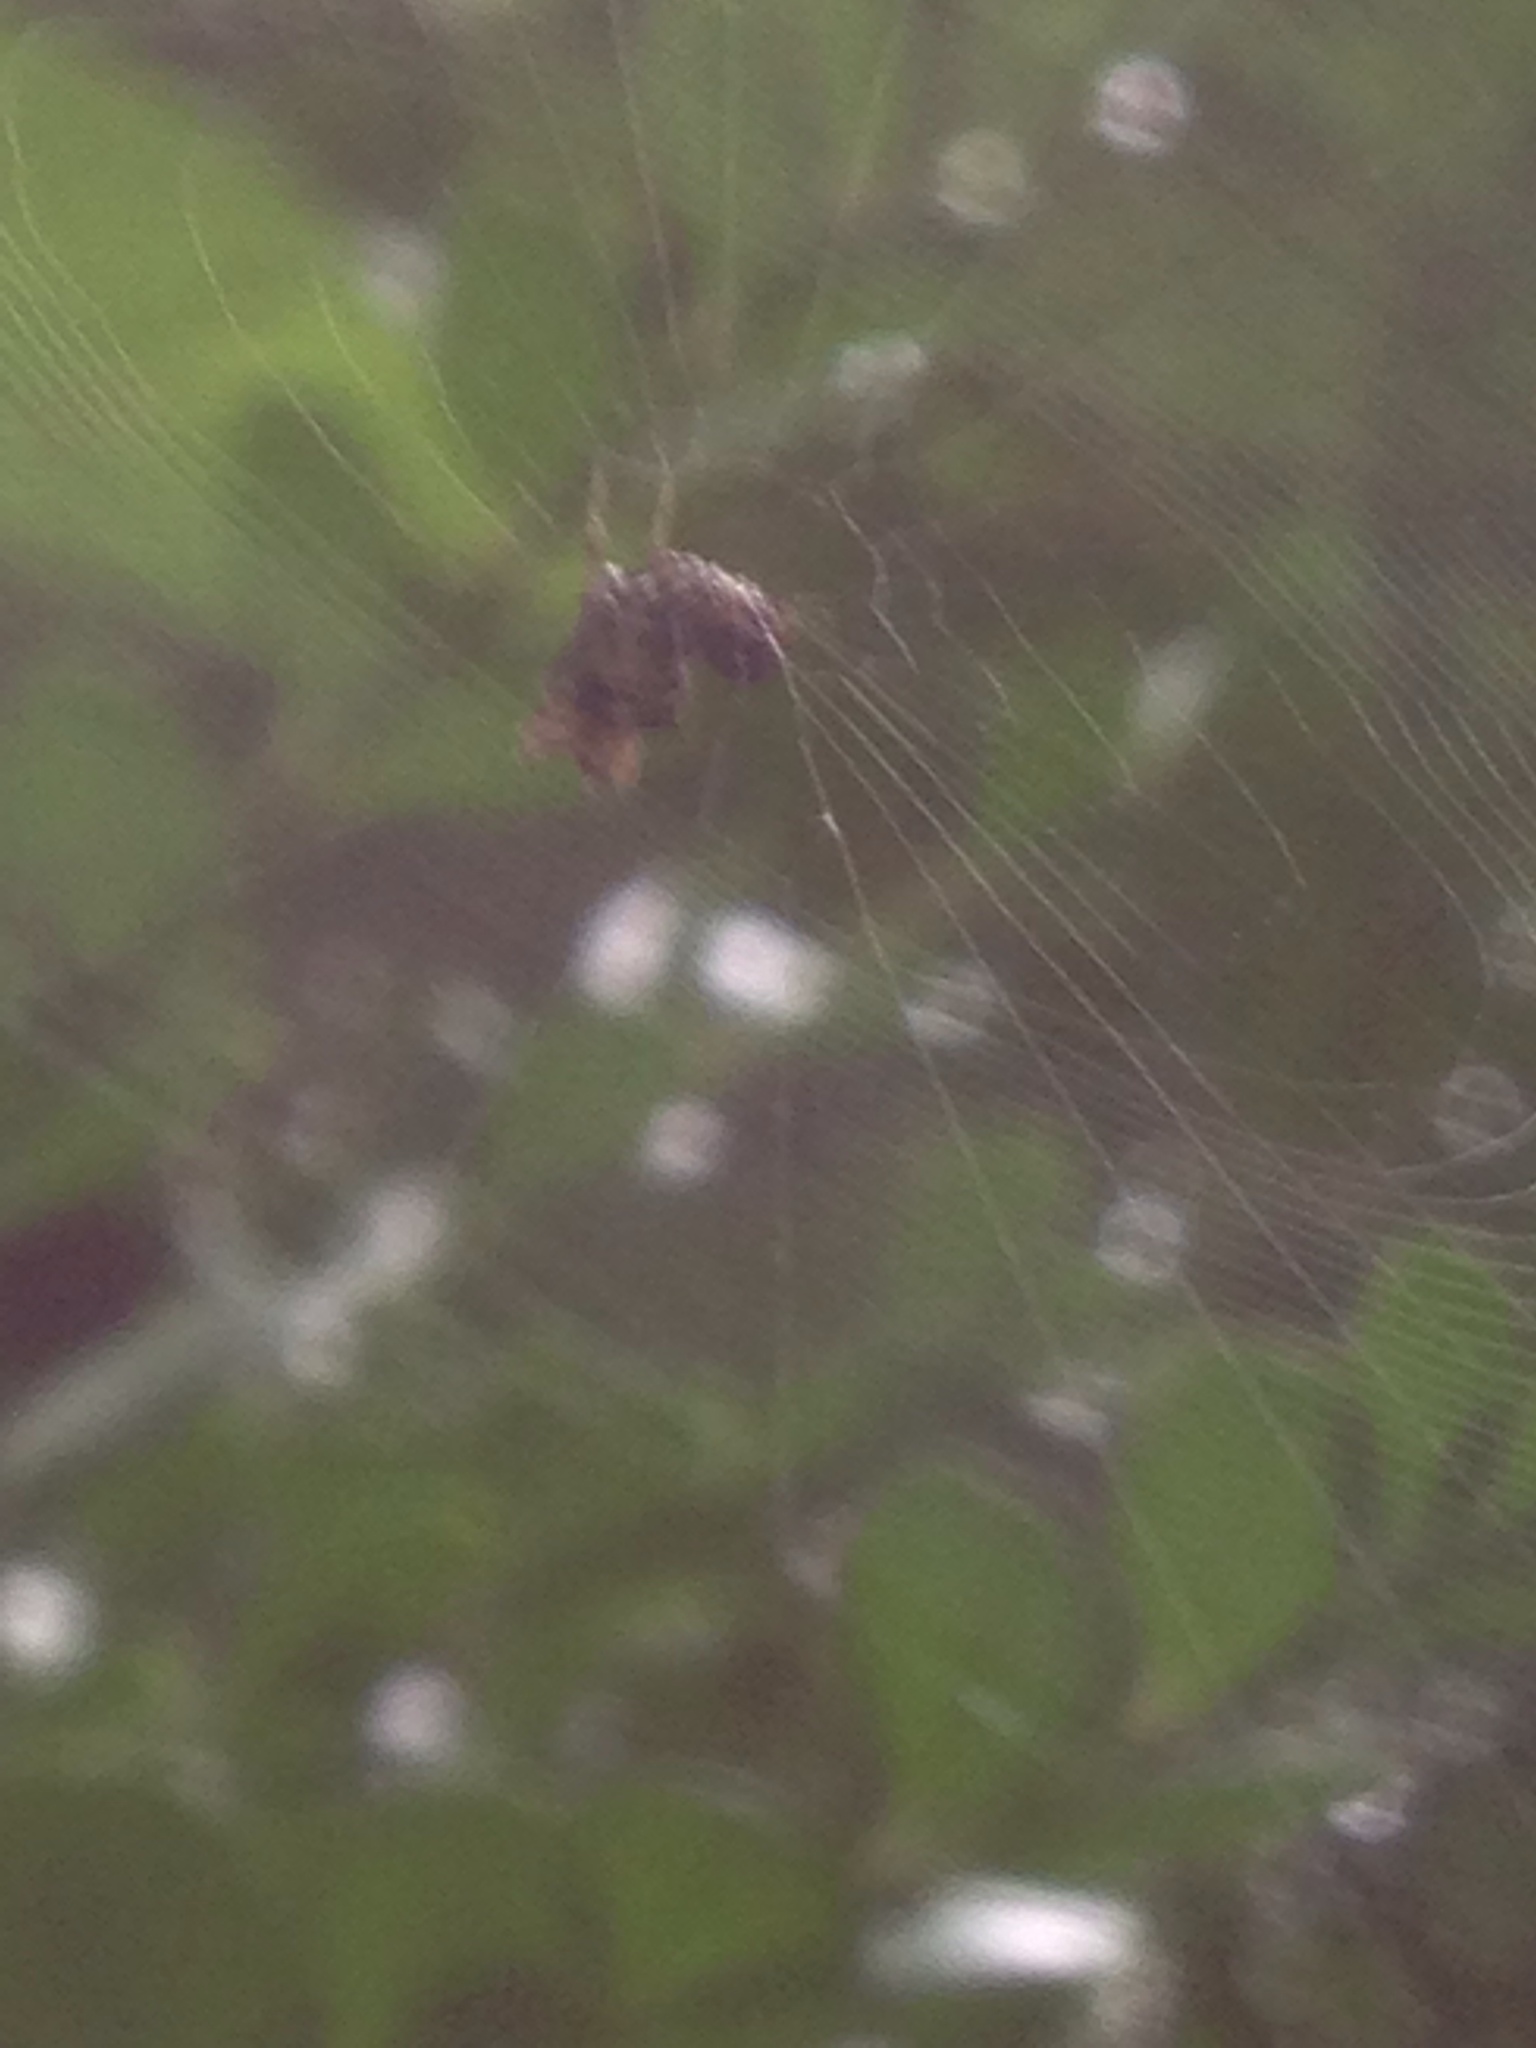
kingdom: Animalia
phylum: Arthropoda
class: Arachnida
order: Araneae
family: Araneidae
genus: Micrathena
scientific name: Micrathena gracilis
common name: Orb weavers
